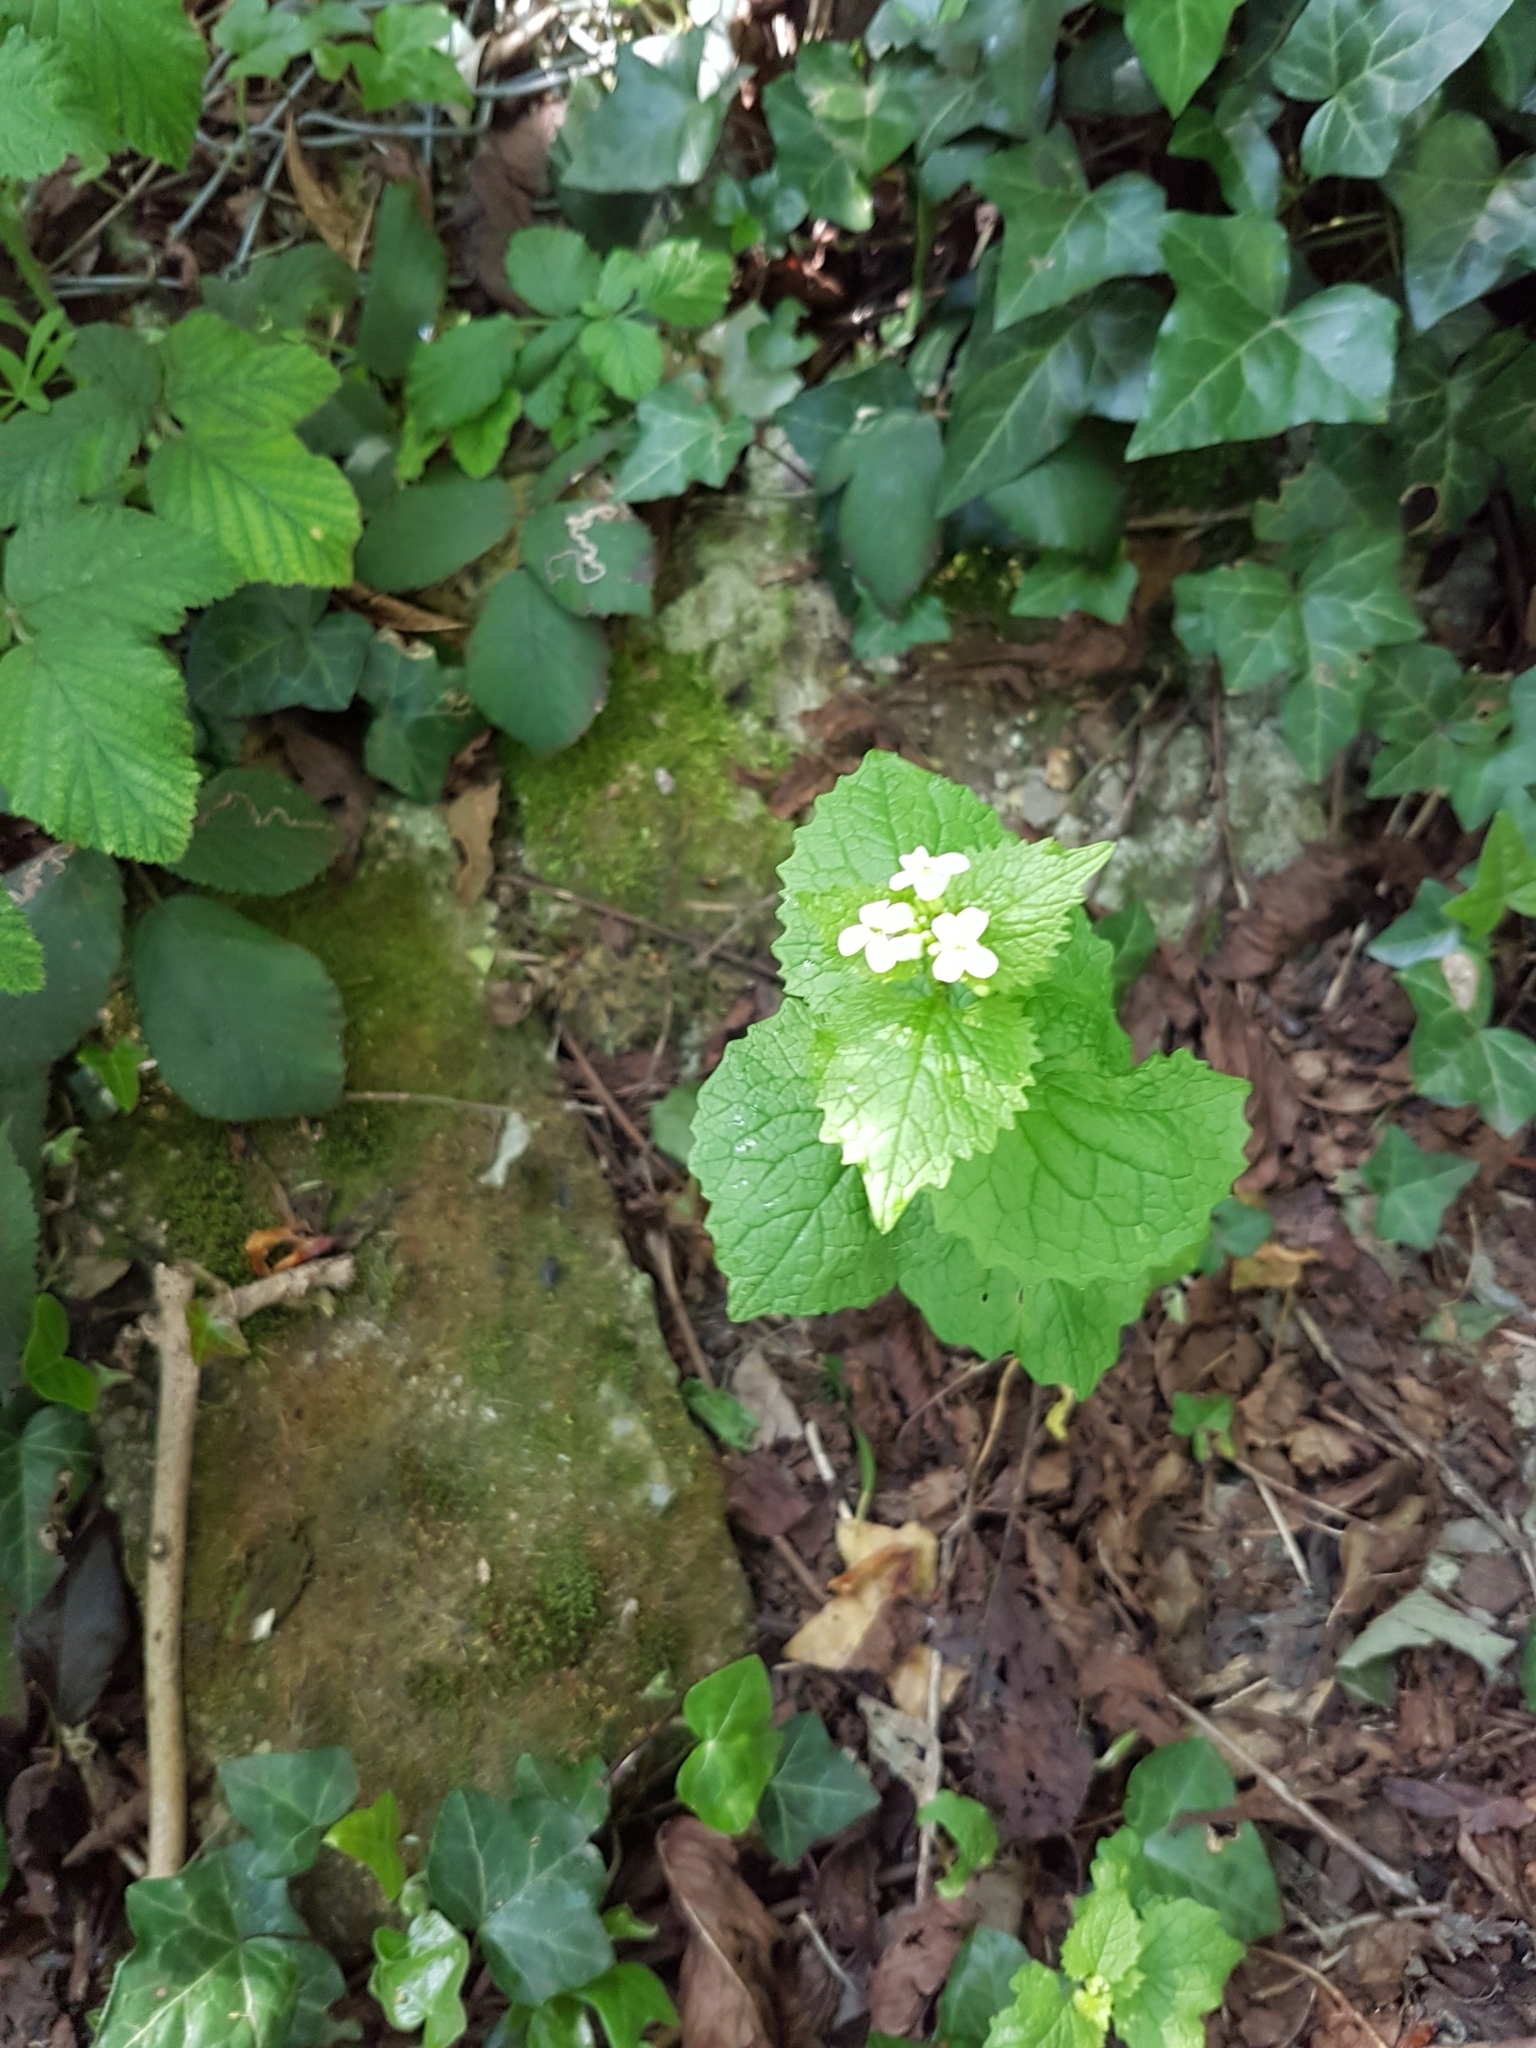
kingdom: Plantae
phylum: Tracheophyta
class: Magnoliopsida
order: Brassicales
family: Brassicaceae
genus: Alliaria
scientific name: Alliaria petiolata
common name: Garlic mustard
